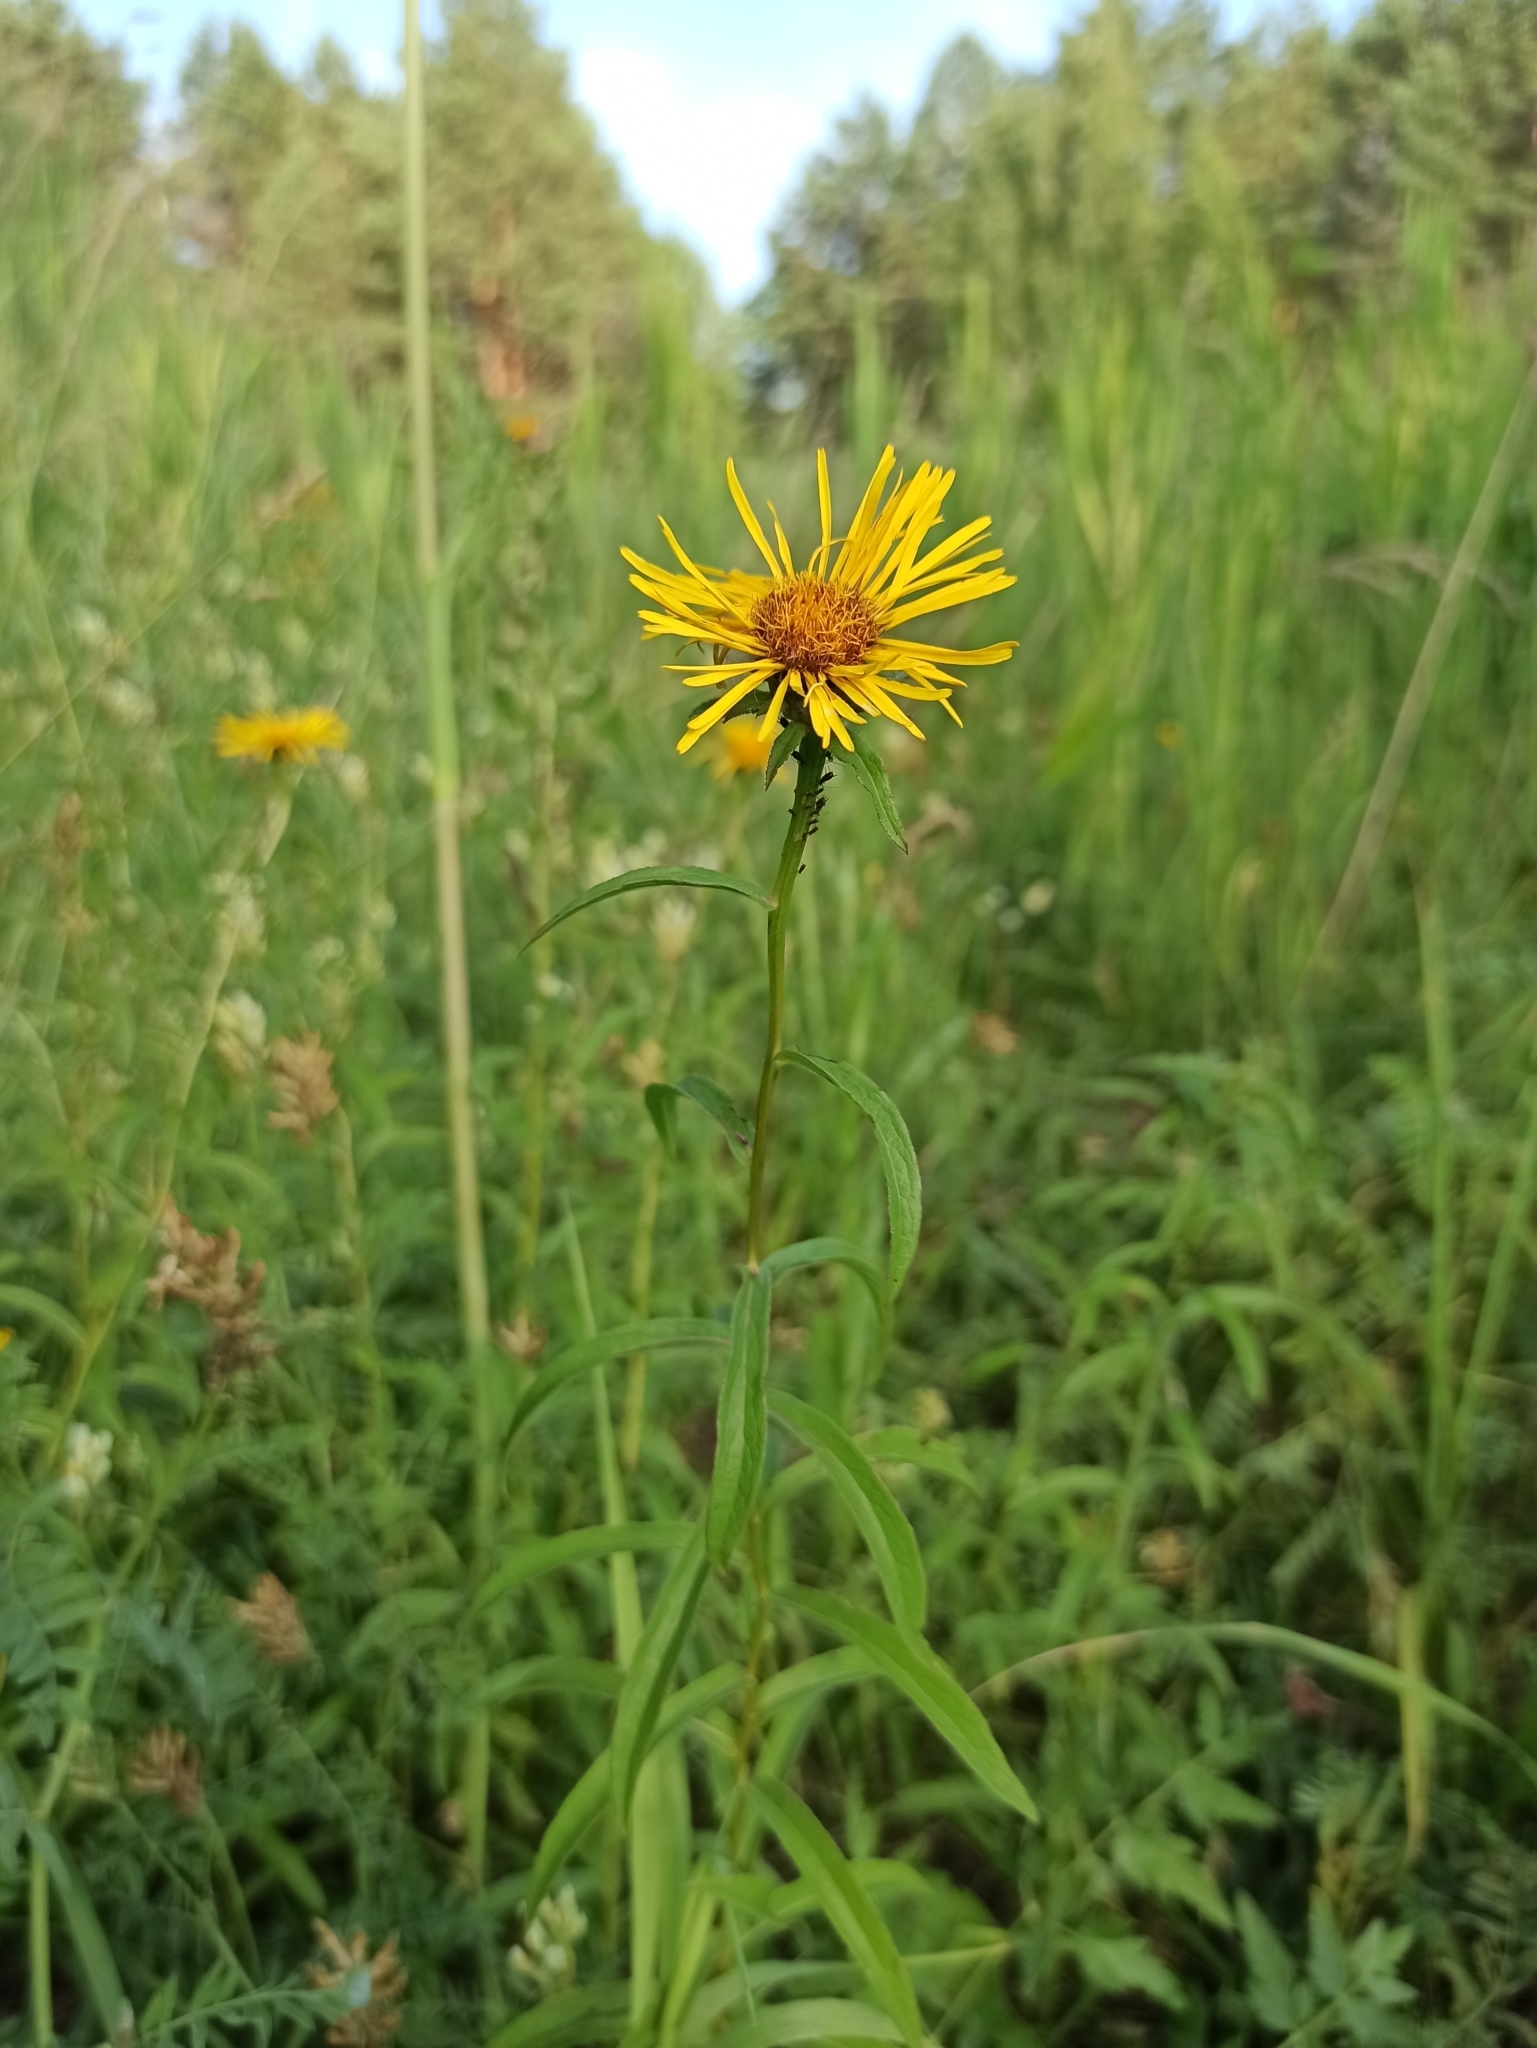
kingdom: Plantae
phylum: Tracheophyta
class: Magnoliopsida
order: Asterales
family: Asteraceae
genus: Pentanema
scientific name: Pentanema salicinum
